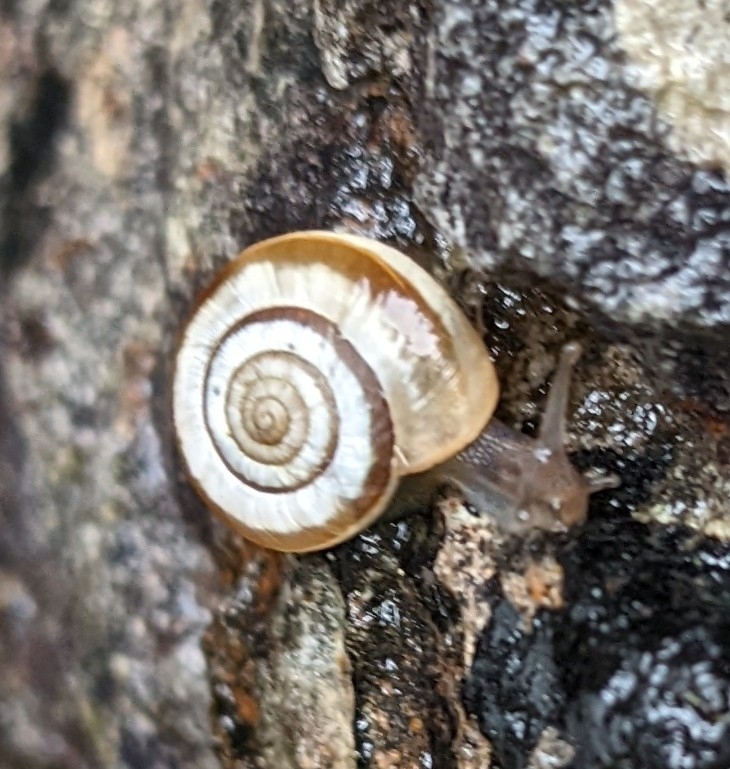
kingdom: Animalia
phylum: Mollusca
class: Gastropoda
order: Stylommatophora
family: Geomitridae
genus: Helicella
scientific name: Helicella itala
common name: Heath snail
